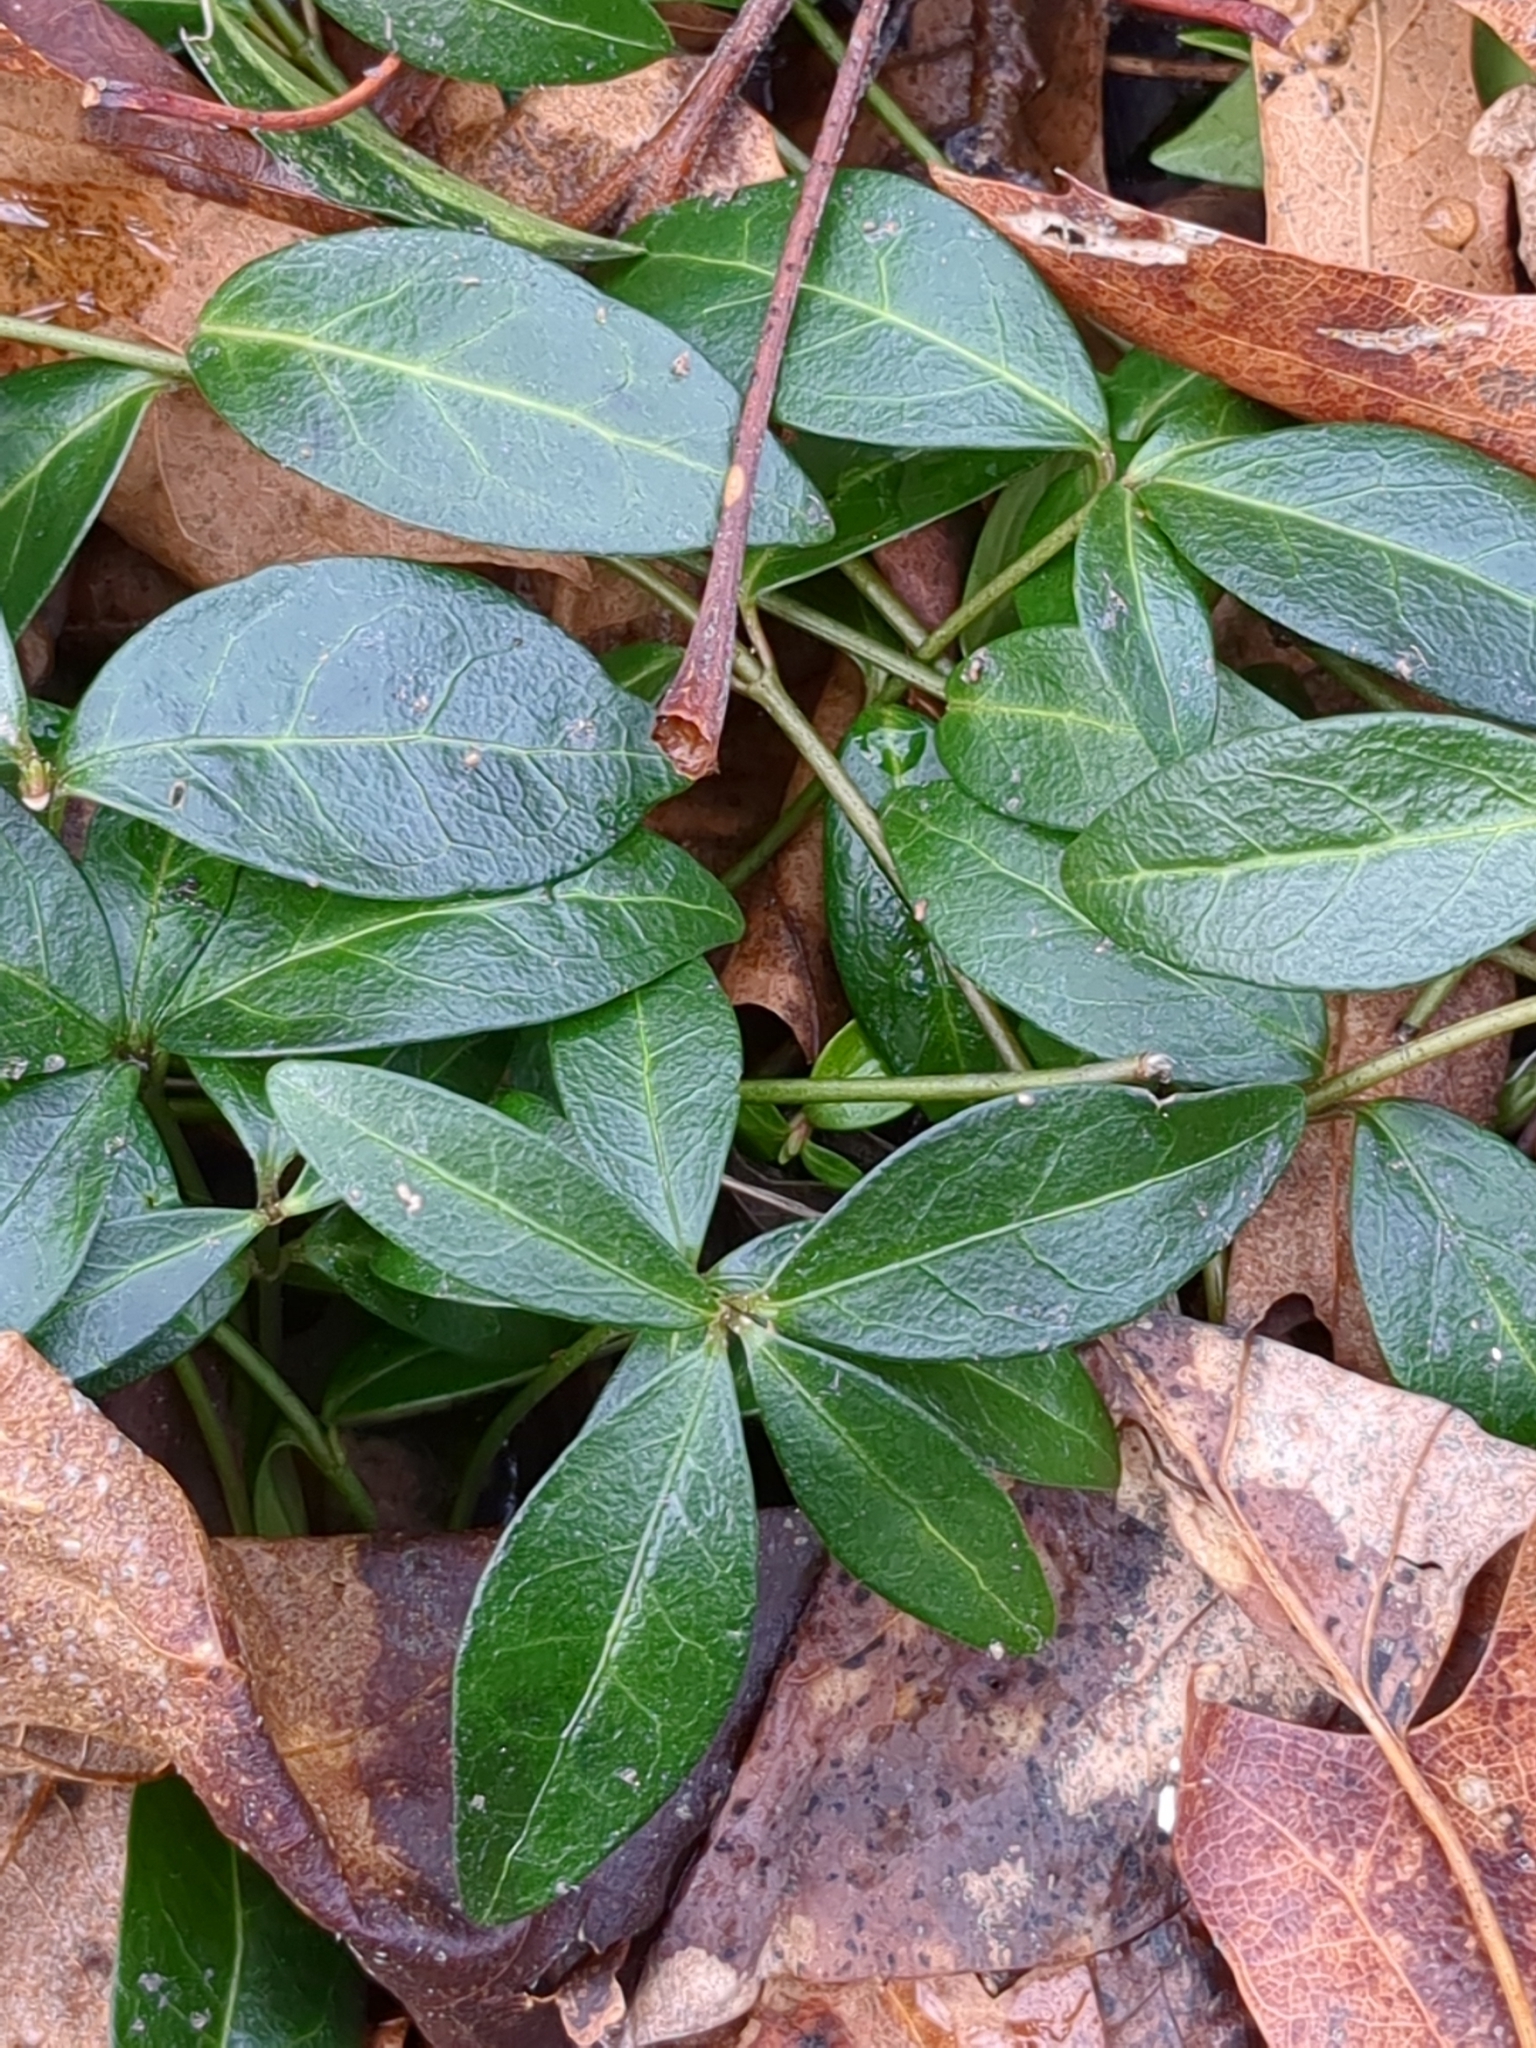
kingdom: Plantae
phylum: Tracheophyta
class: Magnoliopsida
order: Gentianales
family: Apocynaceae
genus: Vinca
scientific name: Vinca minor
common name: Lesser periwinkle
